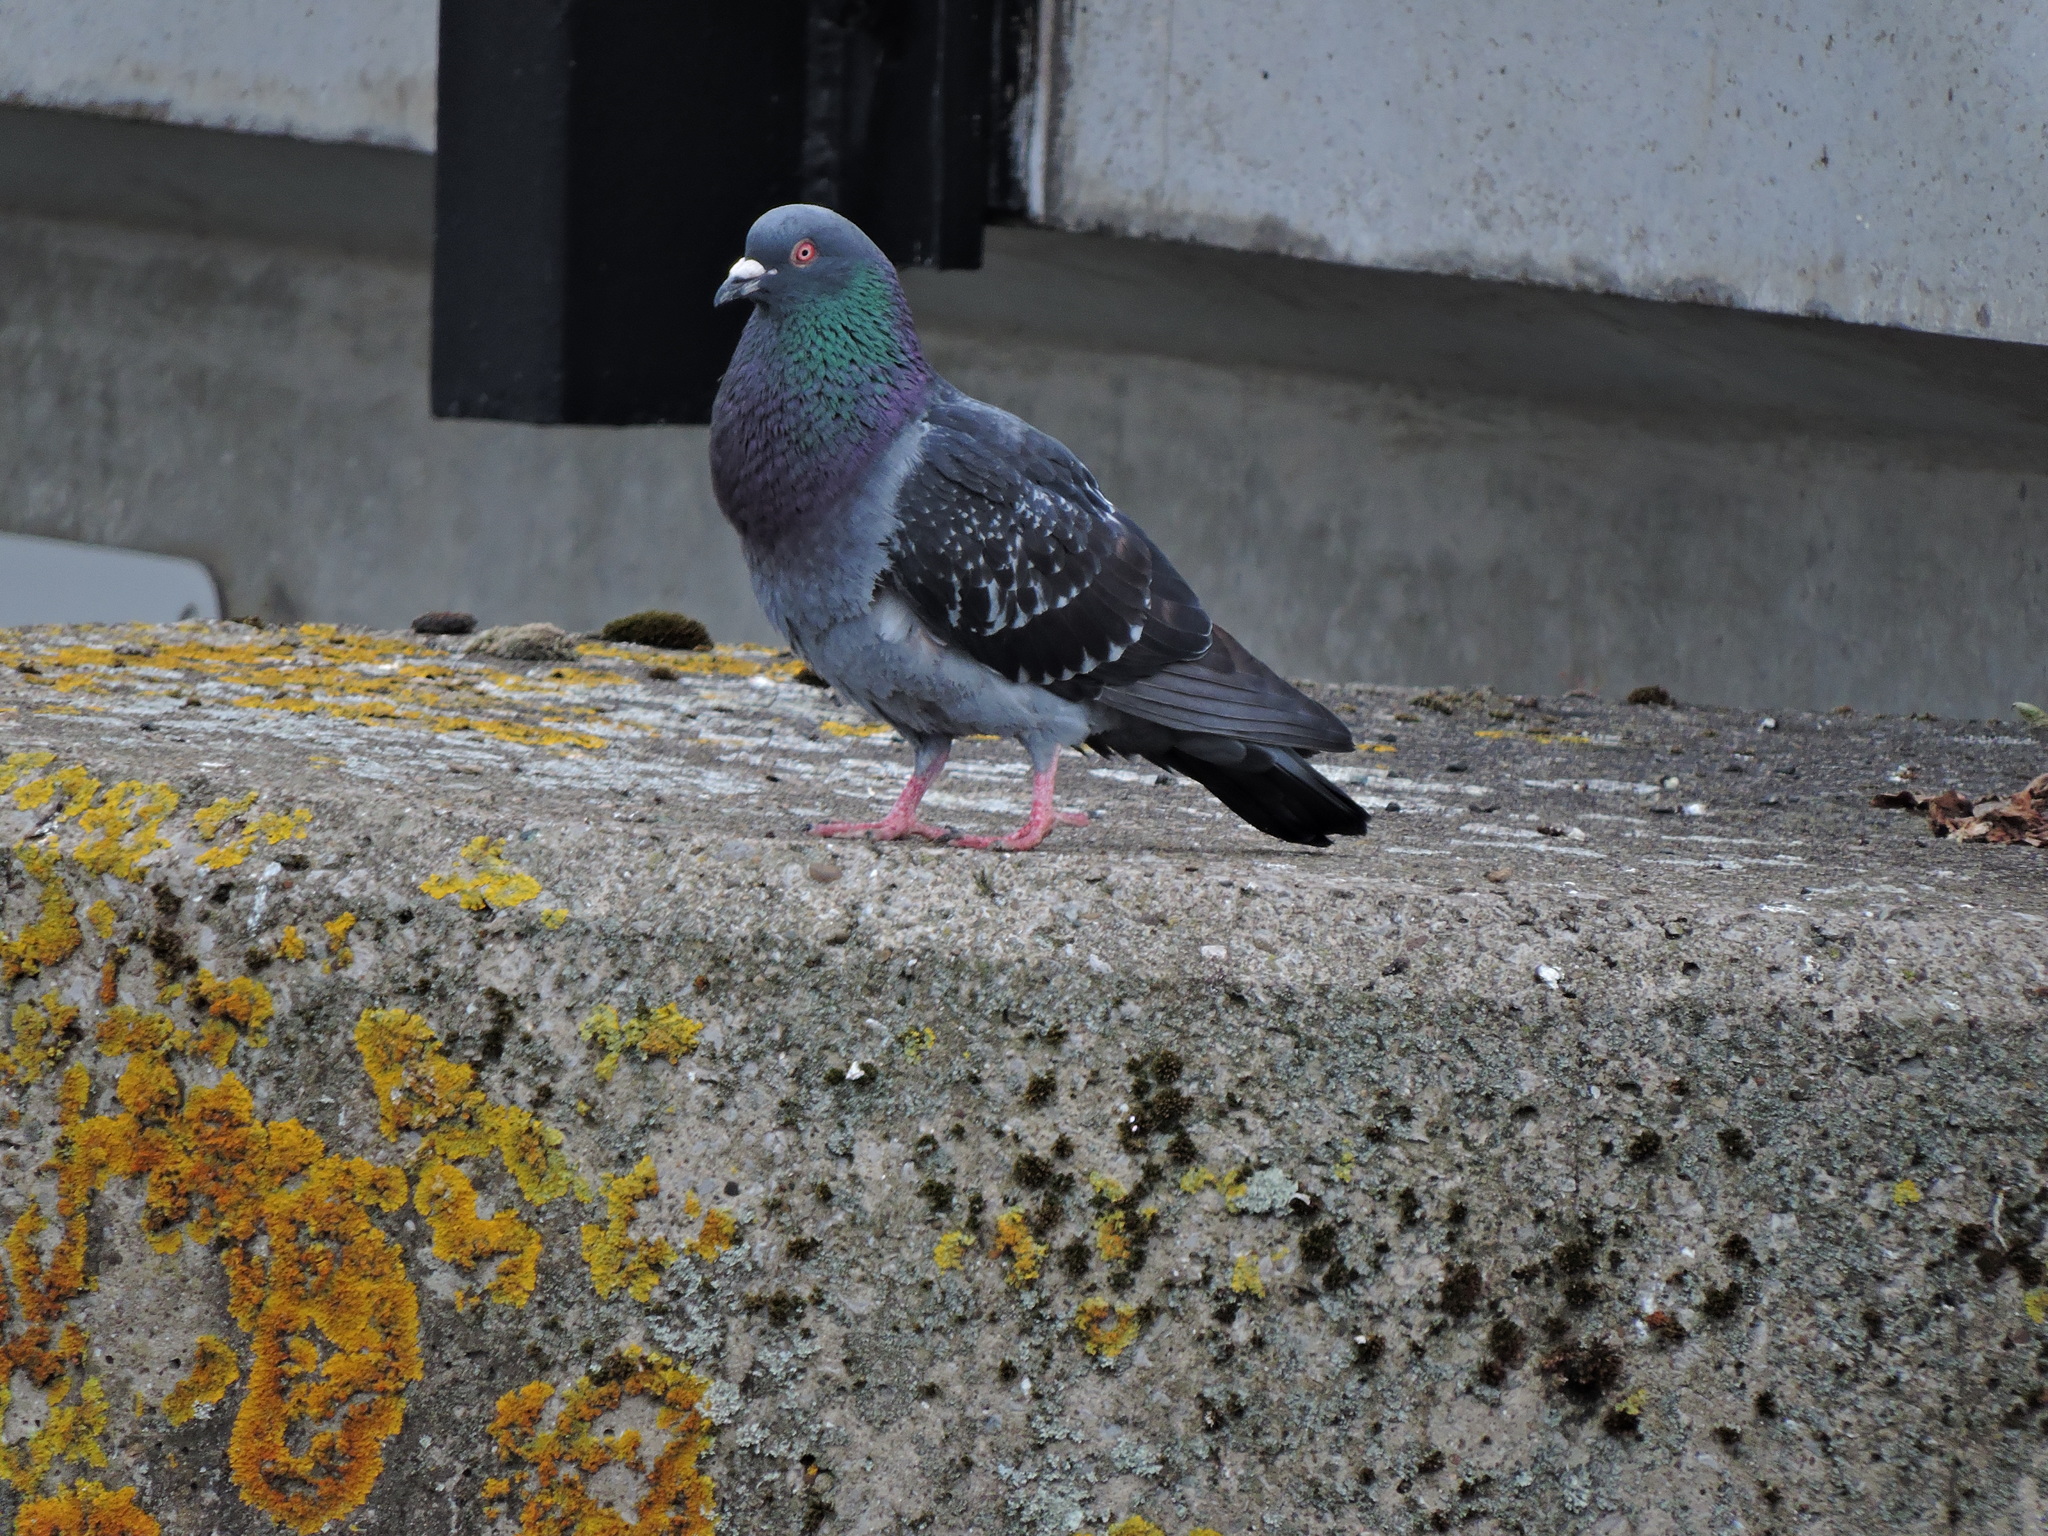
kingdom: Animalia
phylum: Chordata
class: Aves
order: Columbiformes
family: Columbidae
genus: Columba
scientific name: Columba livia
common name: Rock pigeon
